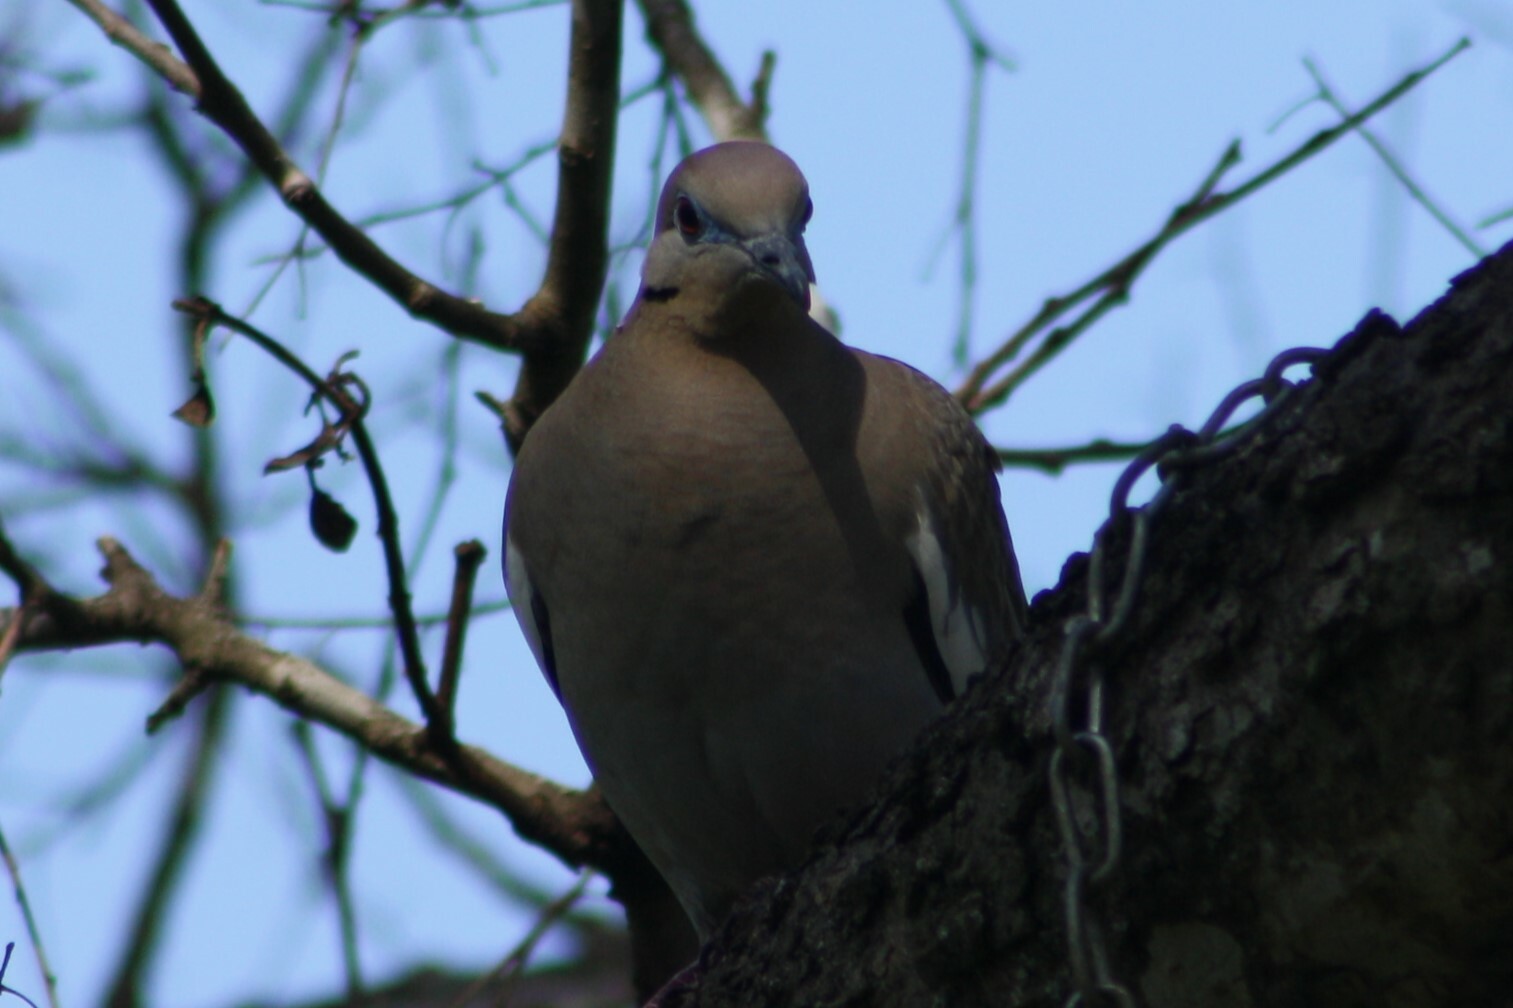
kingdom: Animalia
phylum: Chordata
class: Aves
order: Columbiformes
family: Columbidae
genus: Zenaida
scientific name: Zenaida asiatica
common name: White-winged dove
